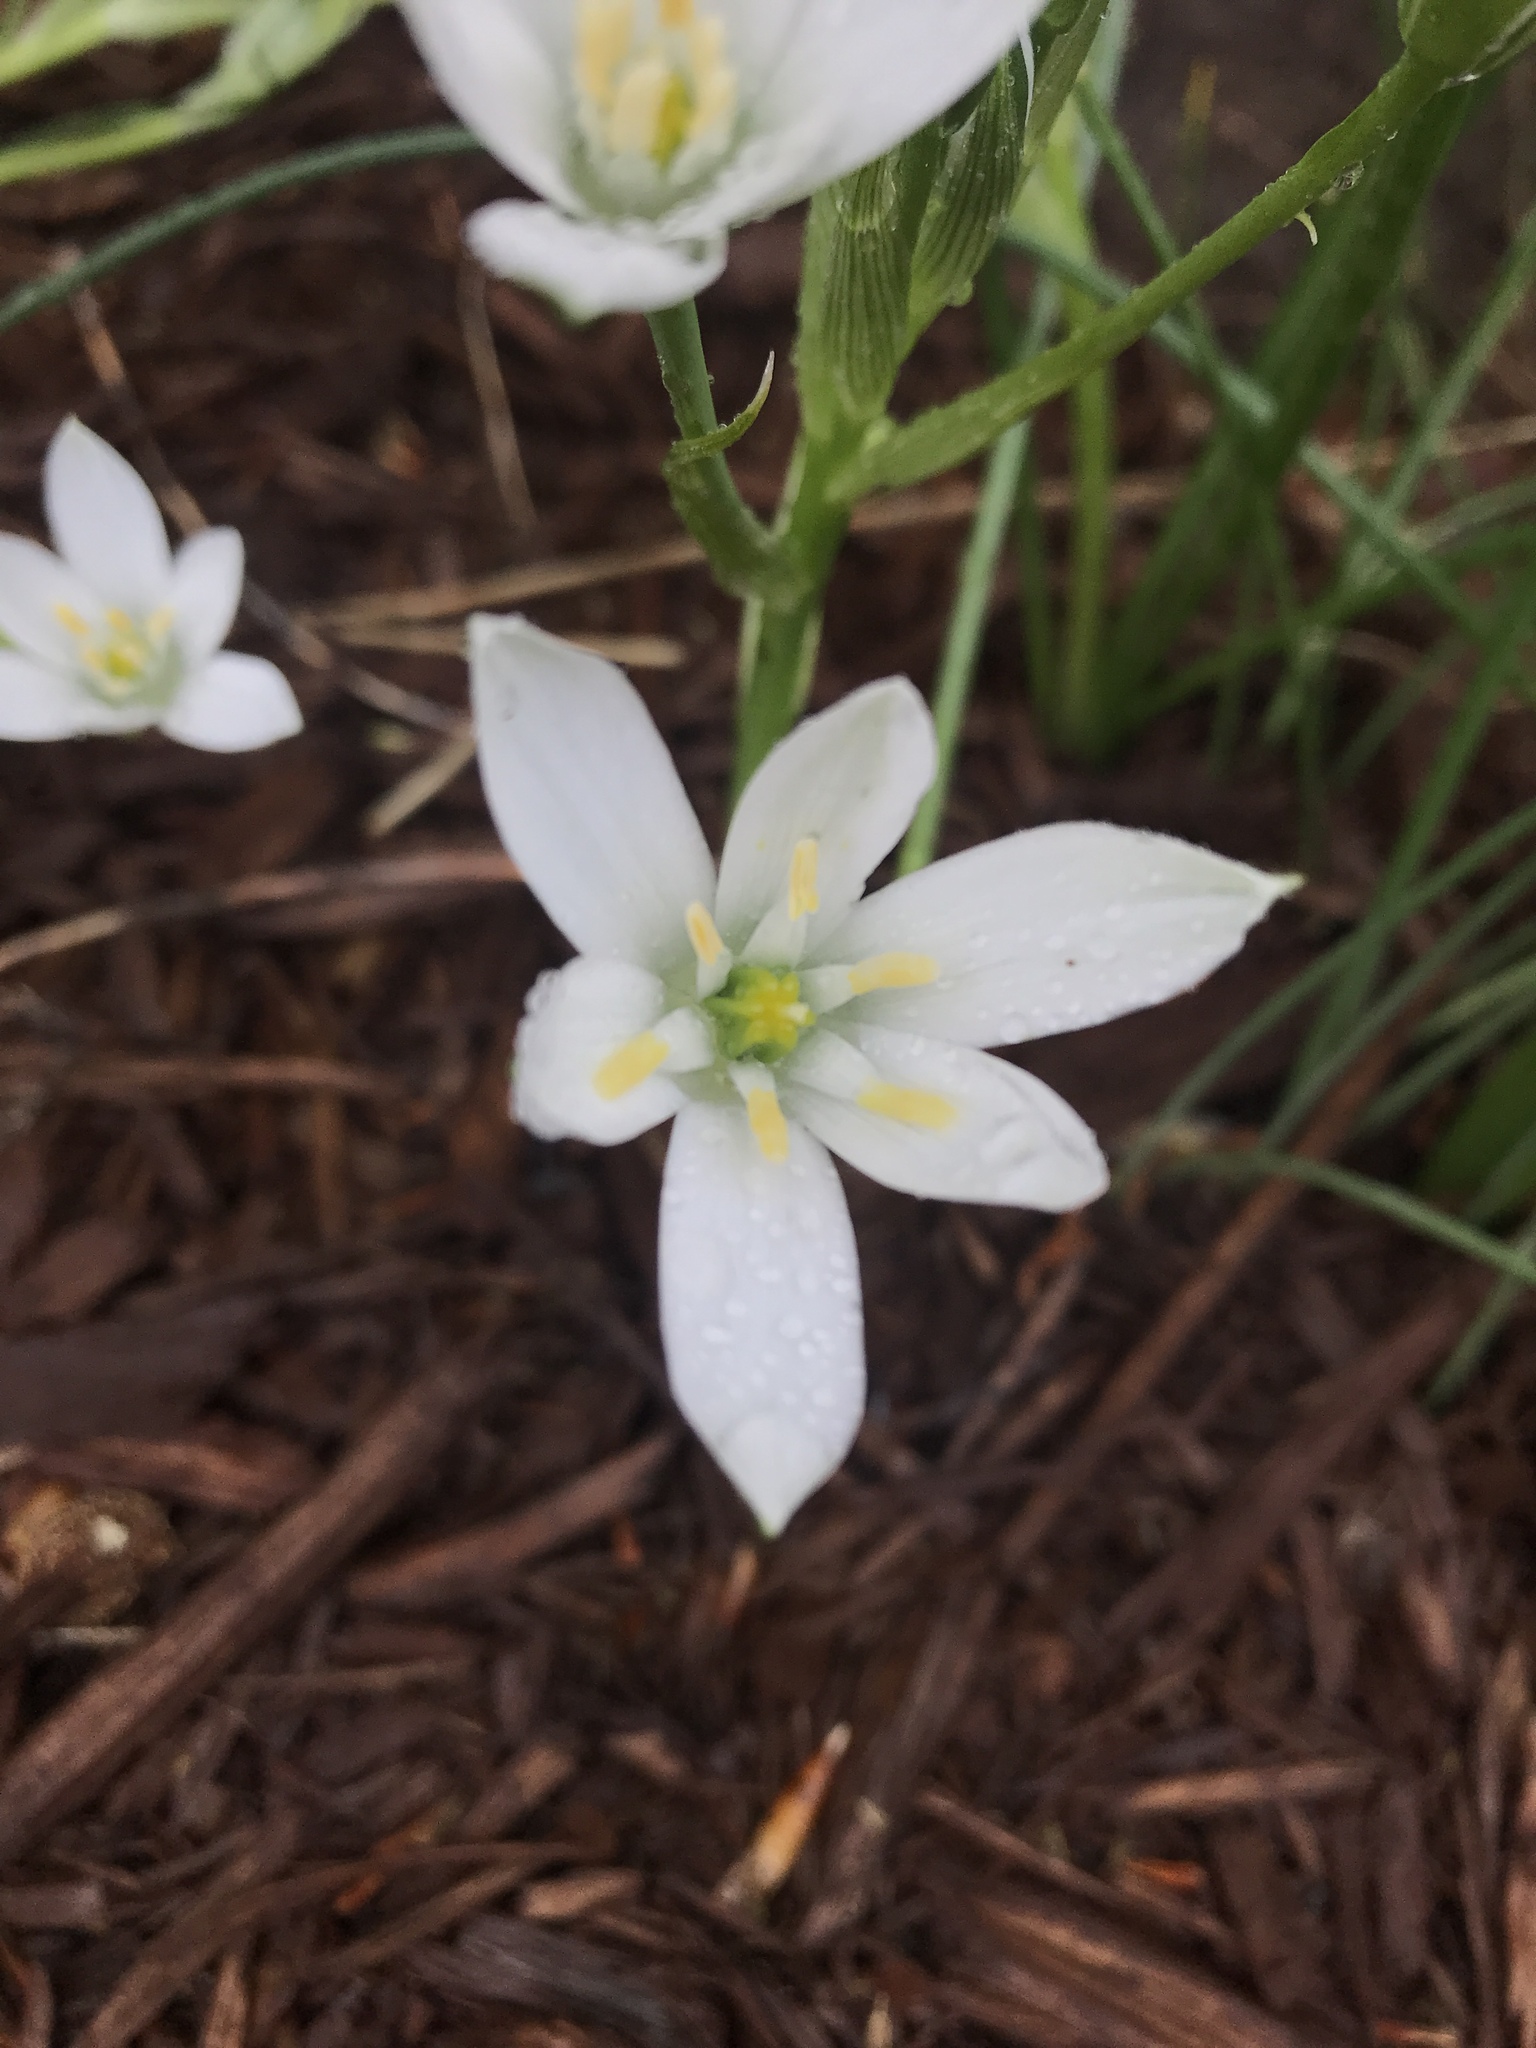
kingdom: Plantae
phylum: Tracheophyta
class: Liliopsida
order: Asparagales
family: Asparagaceae
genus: Ornithogalum
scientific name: Ornithogalum umbellatum
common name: Garden star-of-bethlehem
